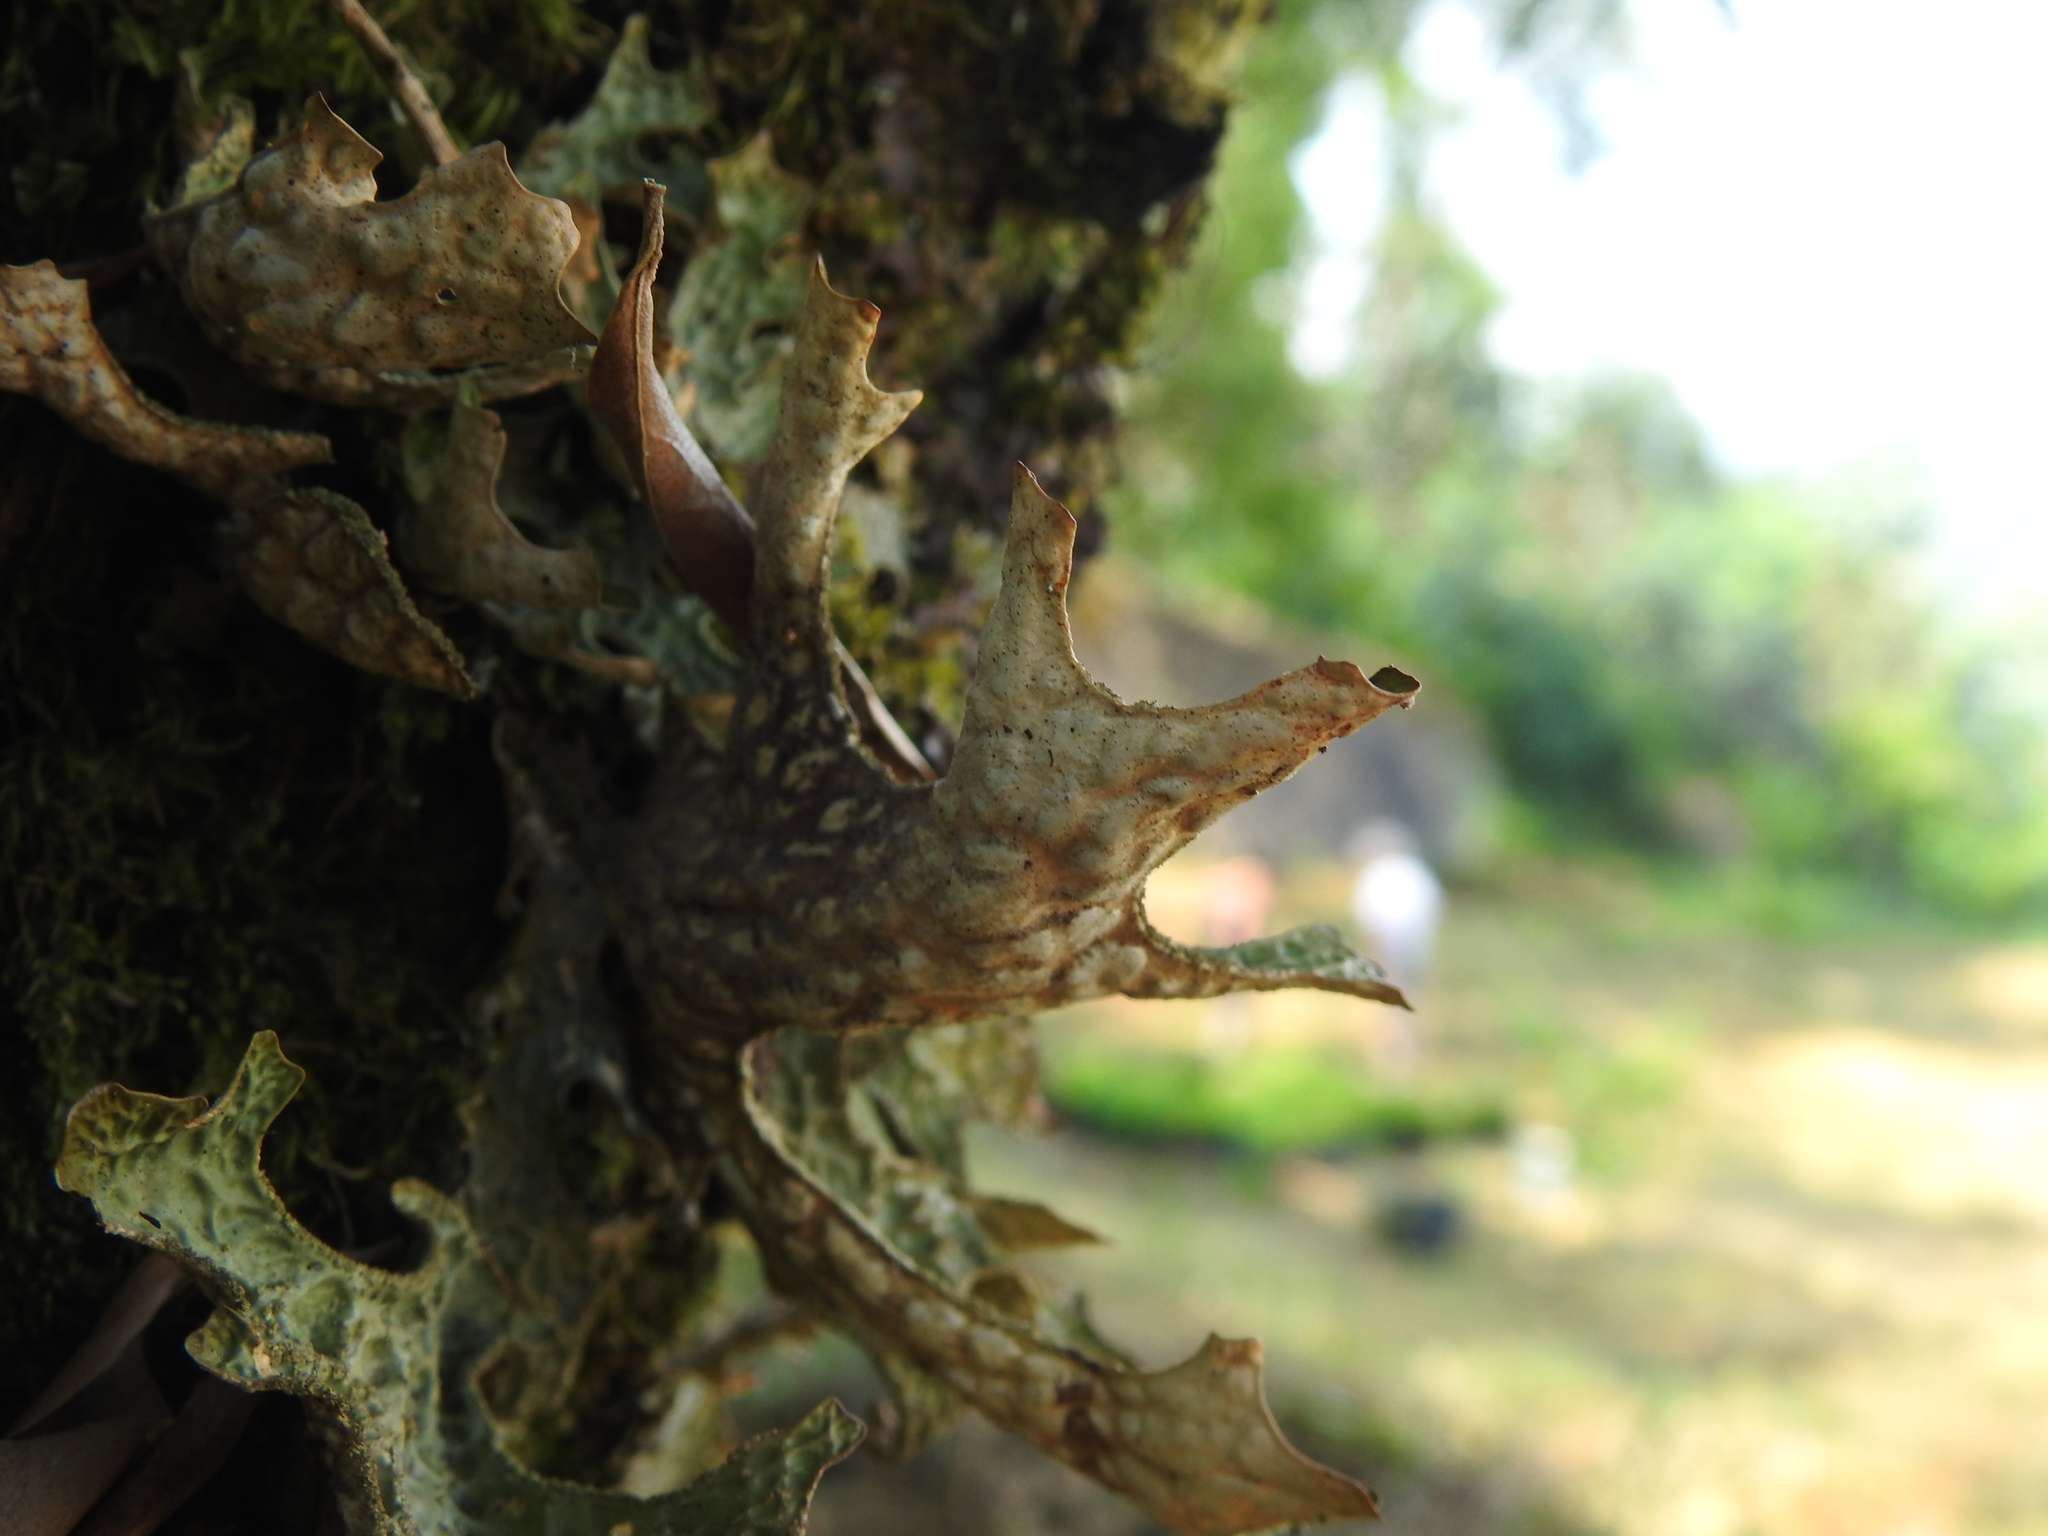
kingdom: Fungi
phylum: Ascomycota
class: Lecanoromycetes
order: Peltigerales
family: Lobariaceae
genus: Lobaria
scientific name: Lobaria pulmonaria
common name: Lungwort
